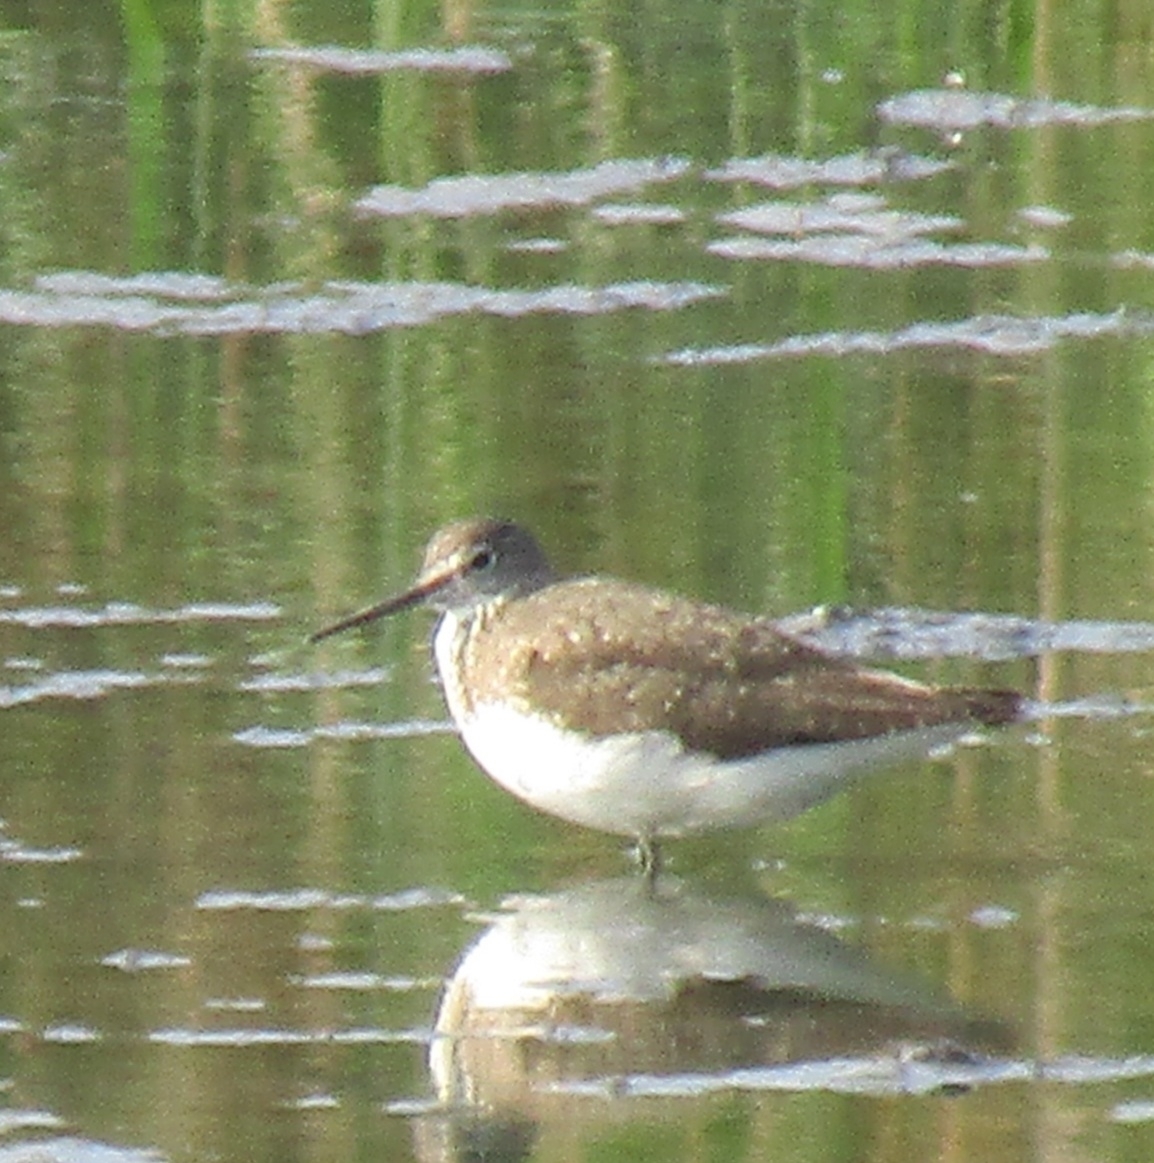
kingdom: Animalia
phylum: Chordata
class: Aves
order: Charadriiformes
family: Scolopacidae
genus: Tringa
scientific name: Tringa ochropus
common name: Green sandpiper
